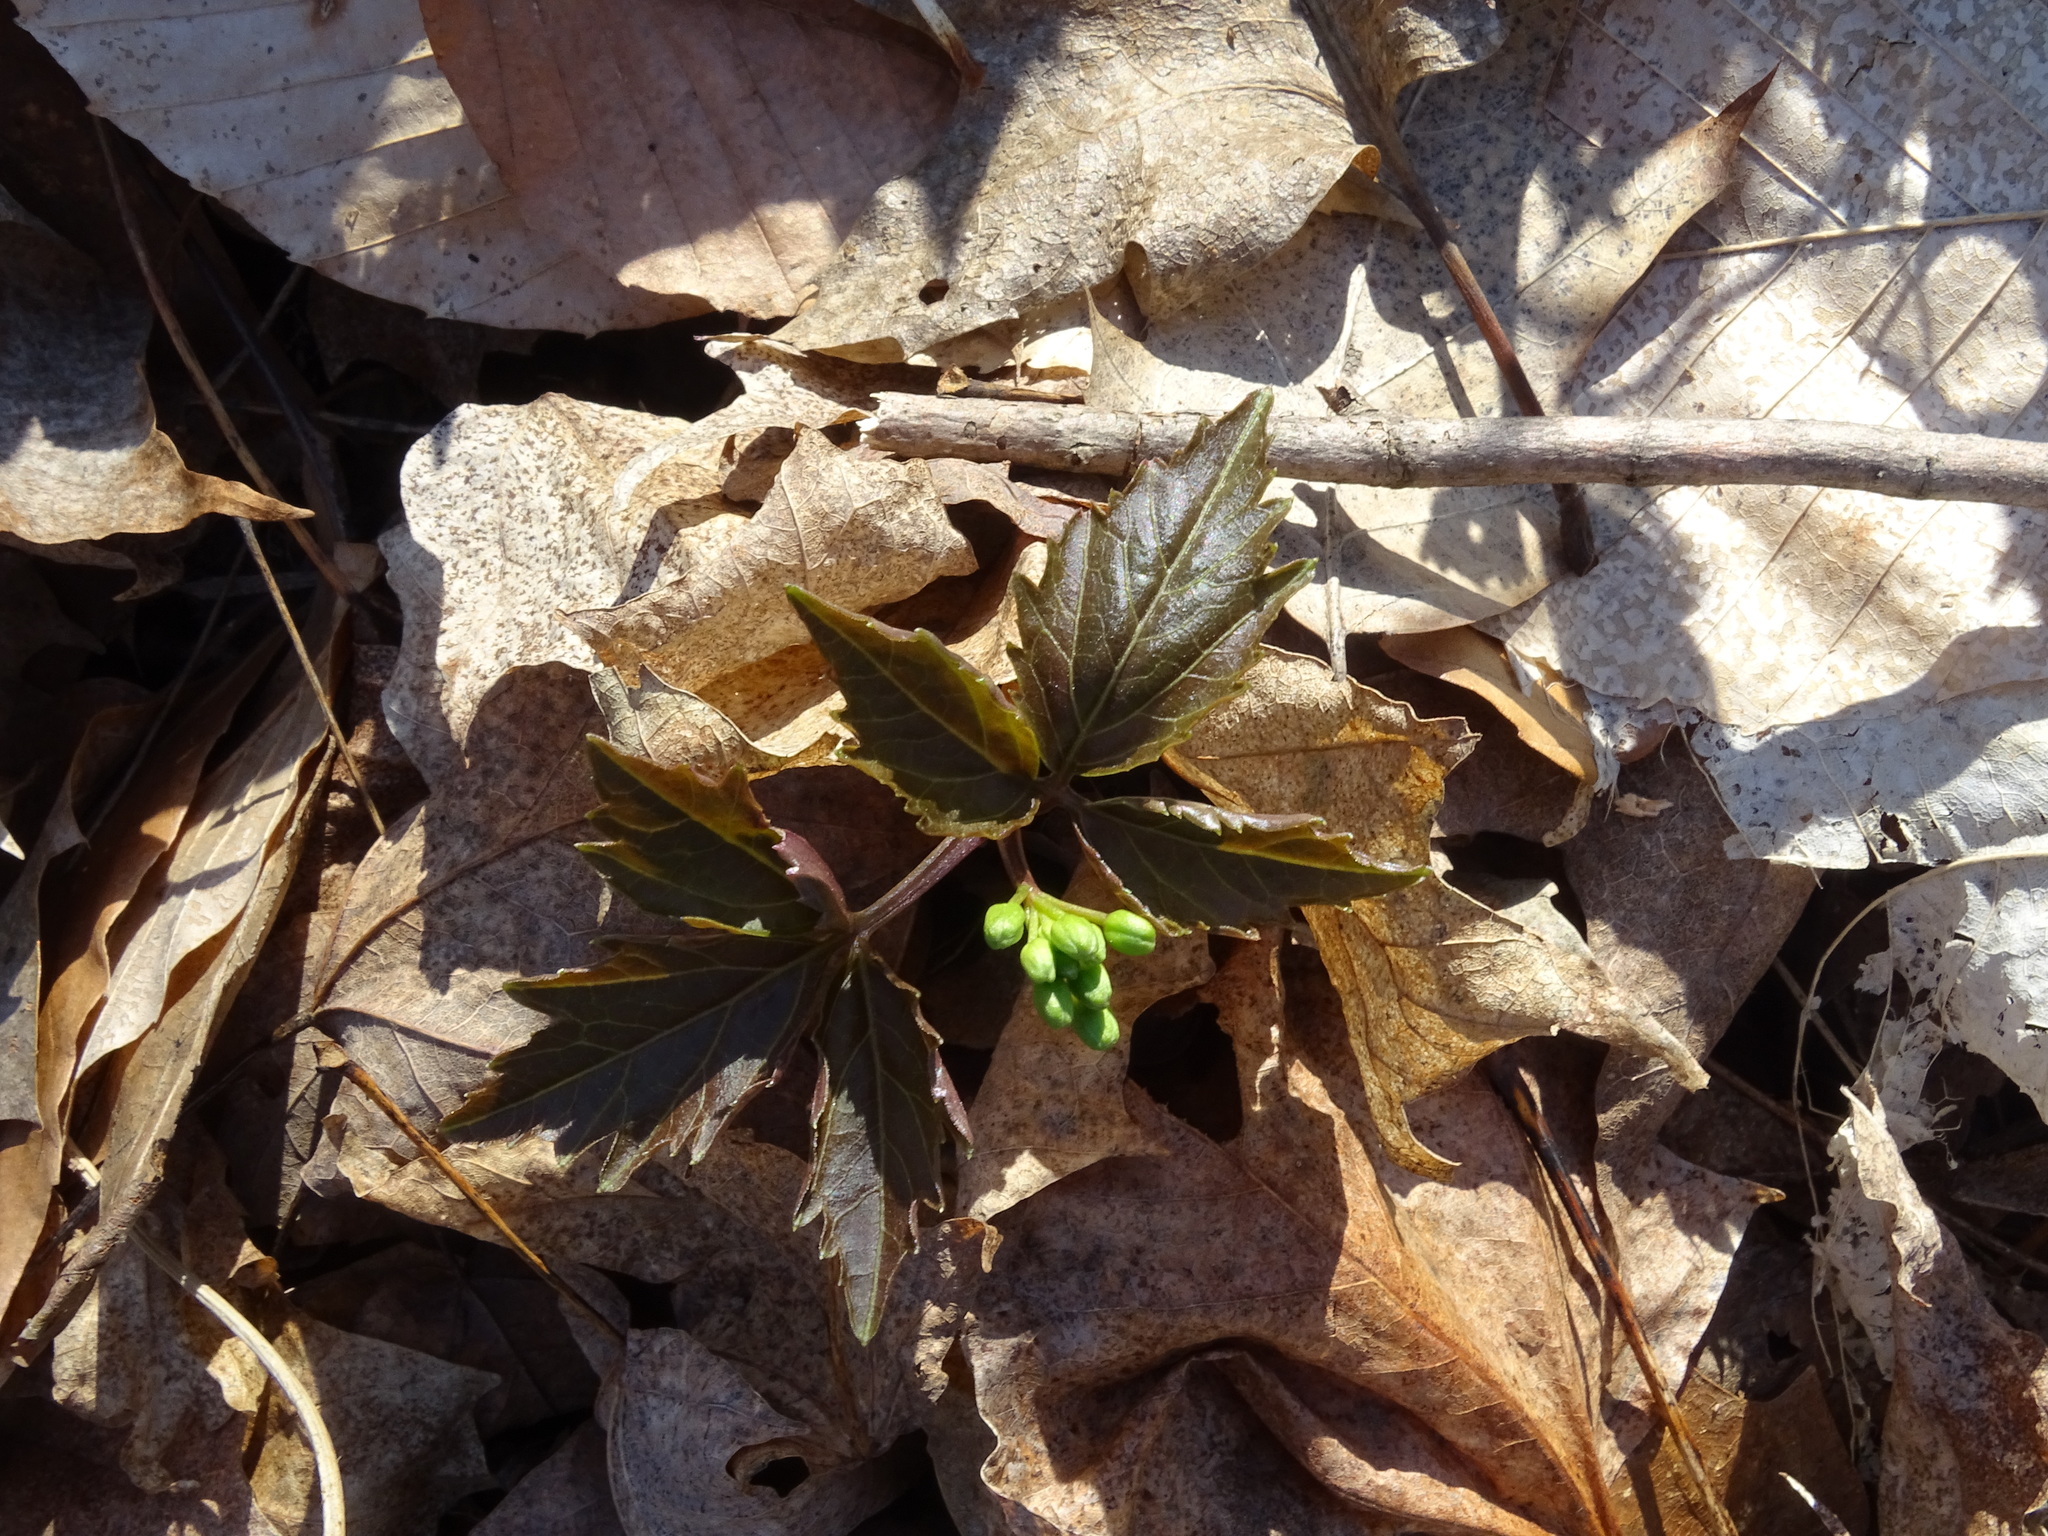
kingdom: Plantae
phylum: Tracheophyta
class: Magnoliopsida
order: Brassicales
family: Brassicaceae
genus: Cardamine
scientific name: Cardamine diphylla
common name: Broad-leaved toothwort
